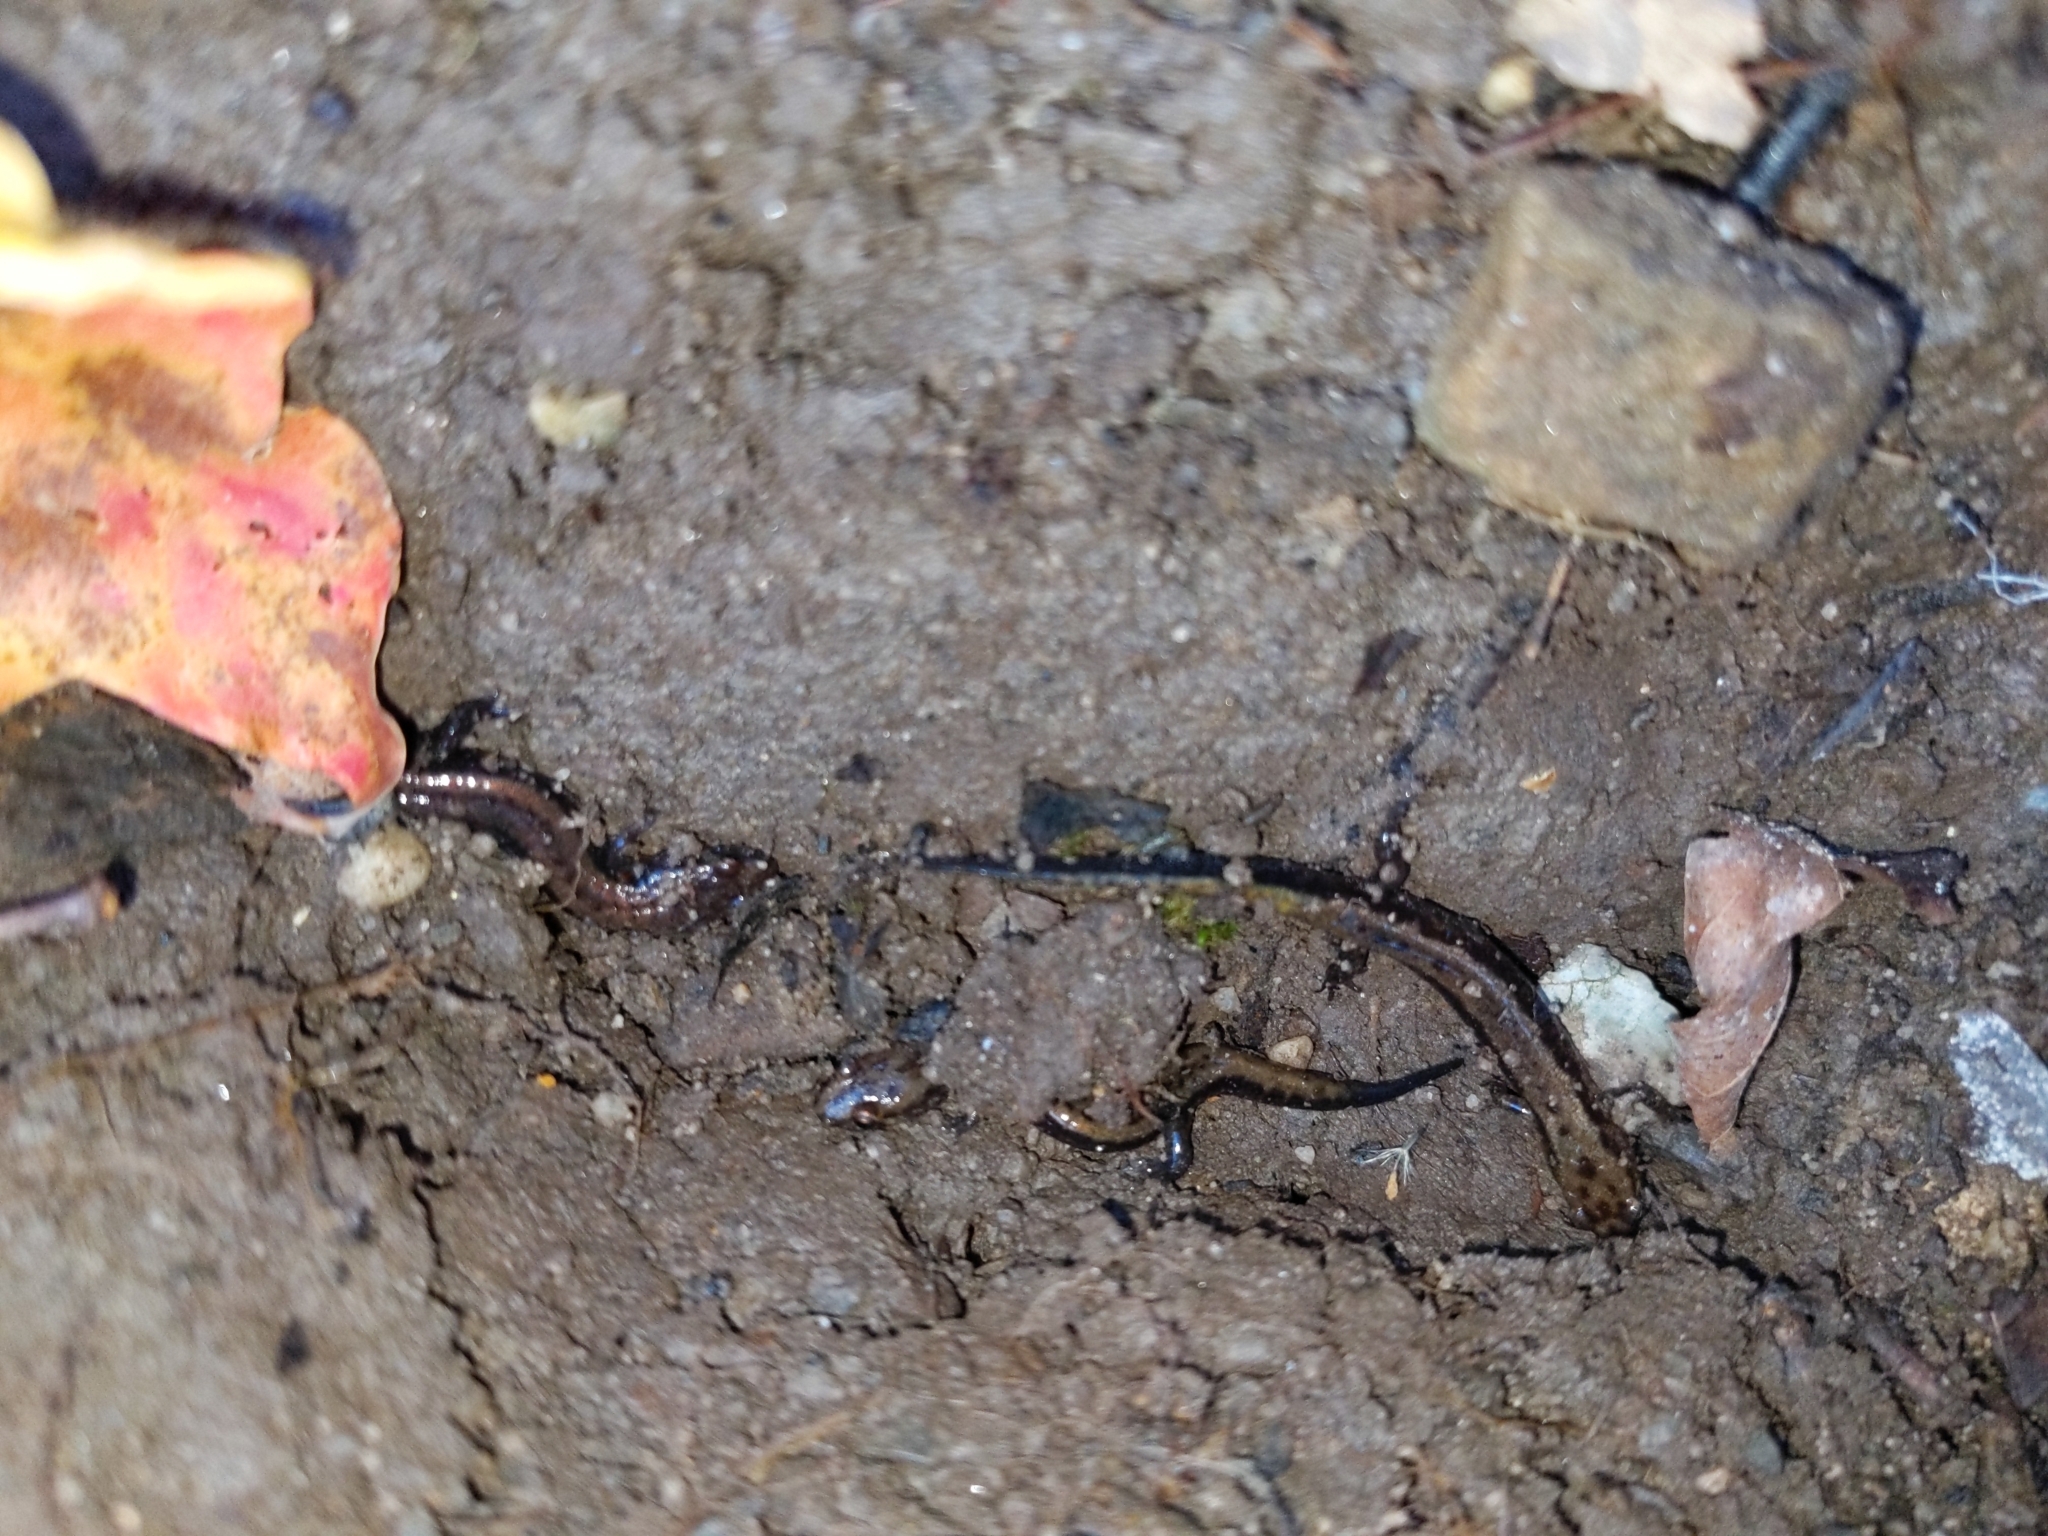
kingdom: Animalia
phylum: Chordata
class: Amphibia
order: Caudata
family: Plethodontidae
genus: Desmognathus
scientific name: Desmognathus ochrophaeus
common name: Allegheny mountain dusky salamander
